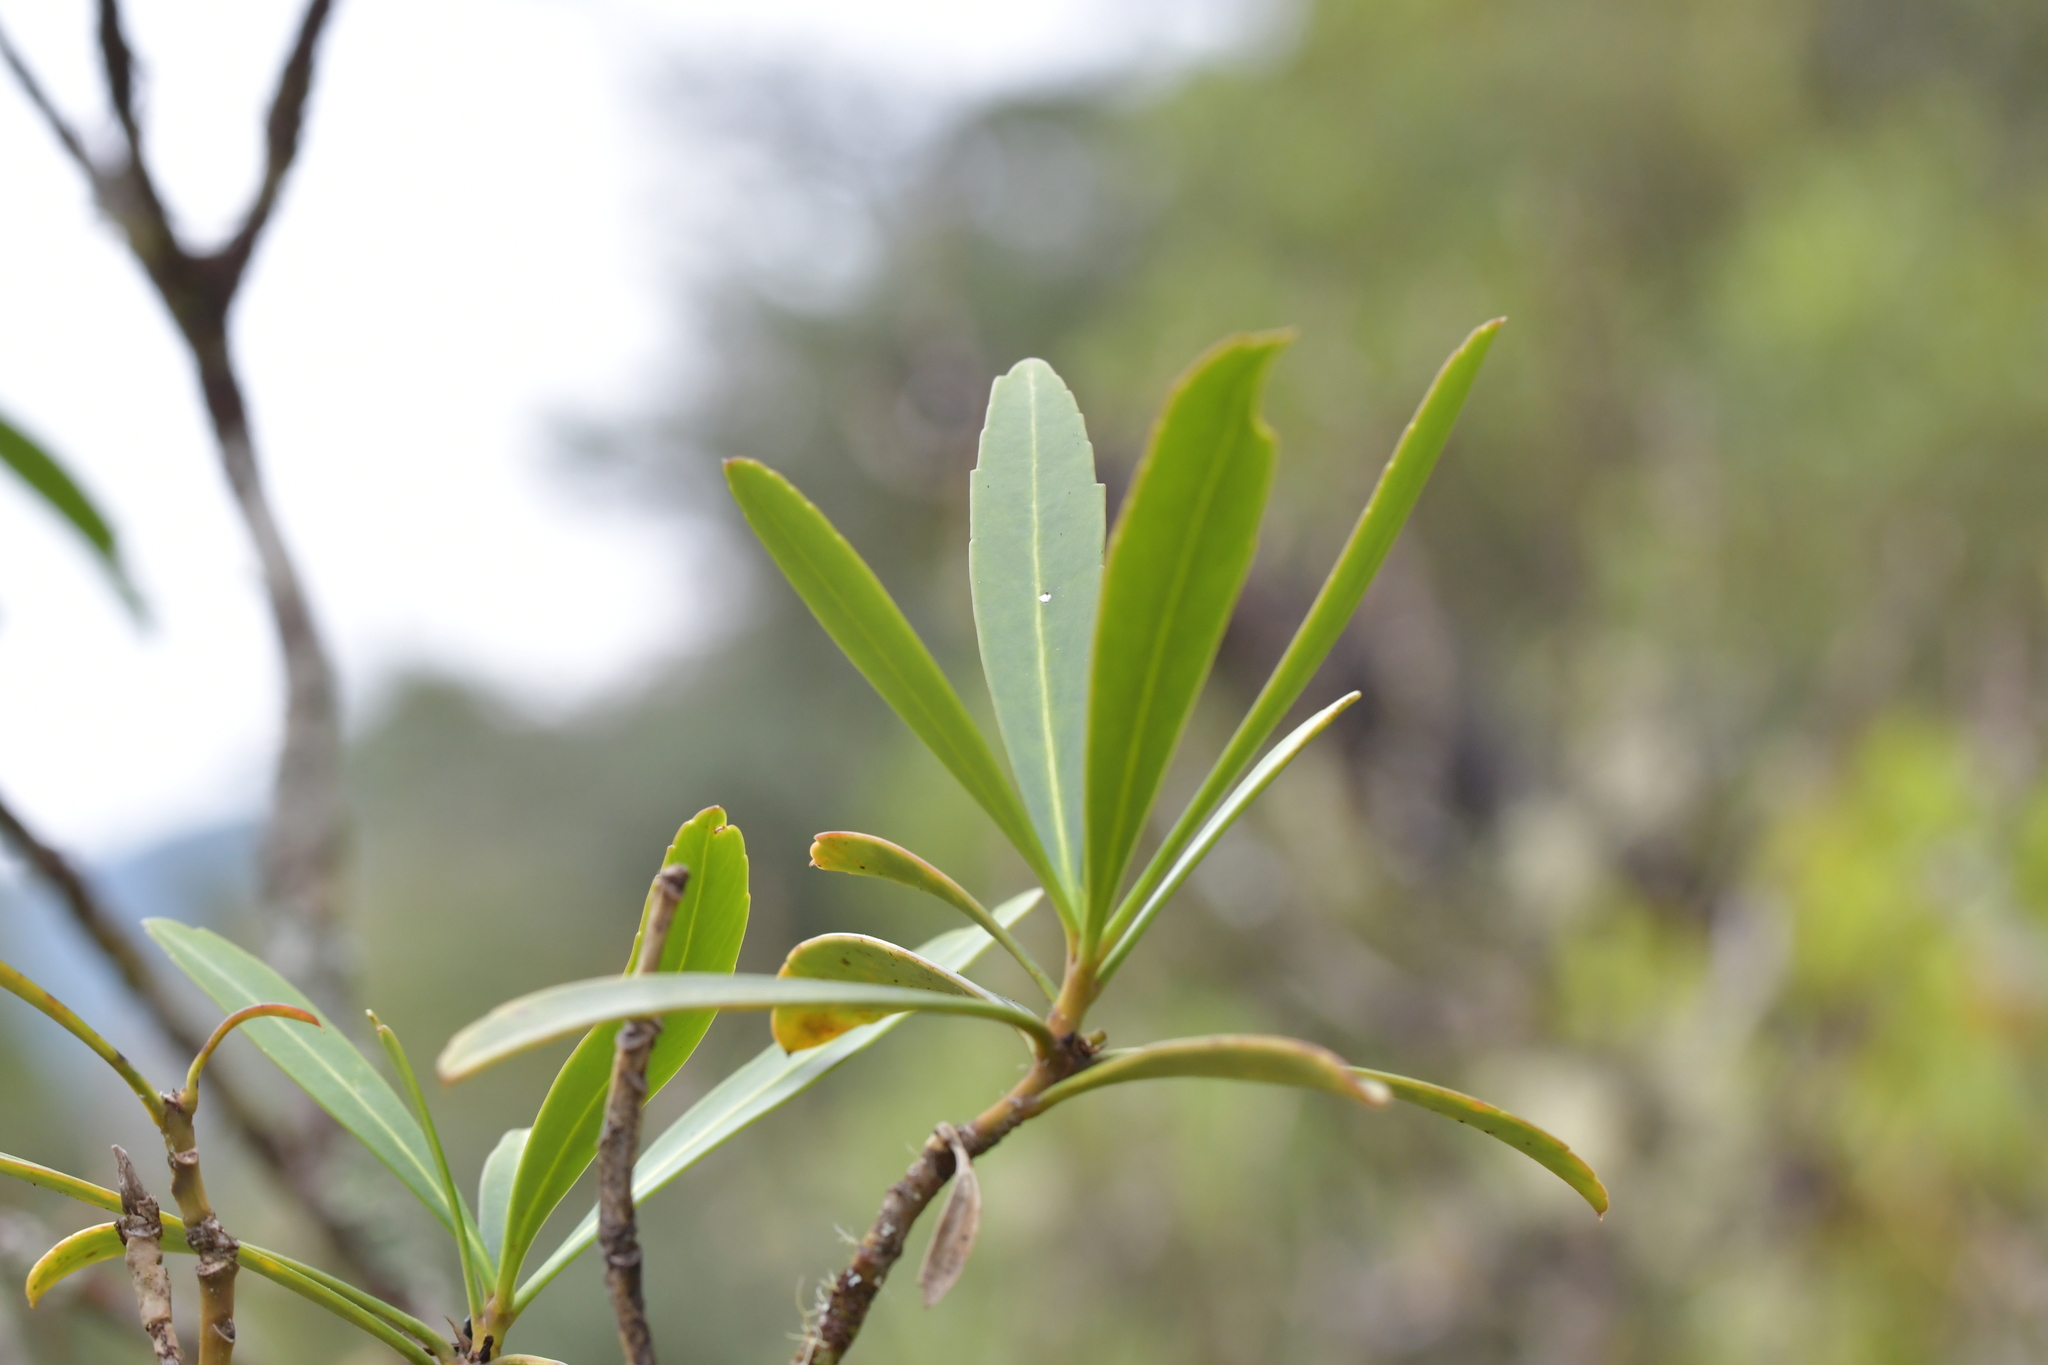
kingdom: Plantae
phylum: Tracheophyta
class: Magnoliopsida
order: Apiales
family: Araliaceae
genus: Pseudopanax
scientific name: Pseudopanax linearis
